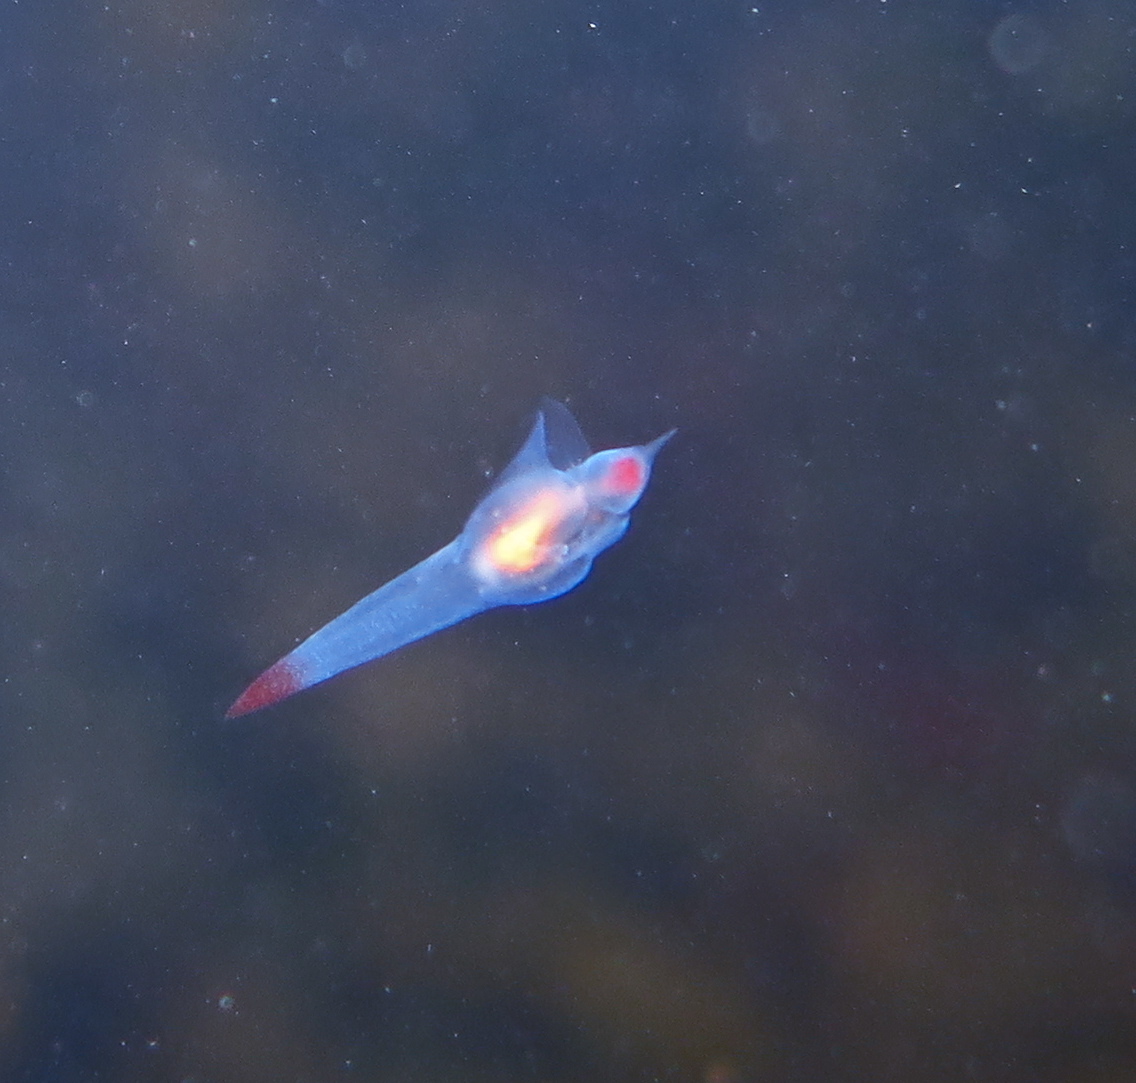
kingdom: Animalia
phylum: Mollusca
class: Gastropoda
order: Pteropoda
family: Clionidae
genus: Clione
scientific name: Clione limacina
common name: Common clione
